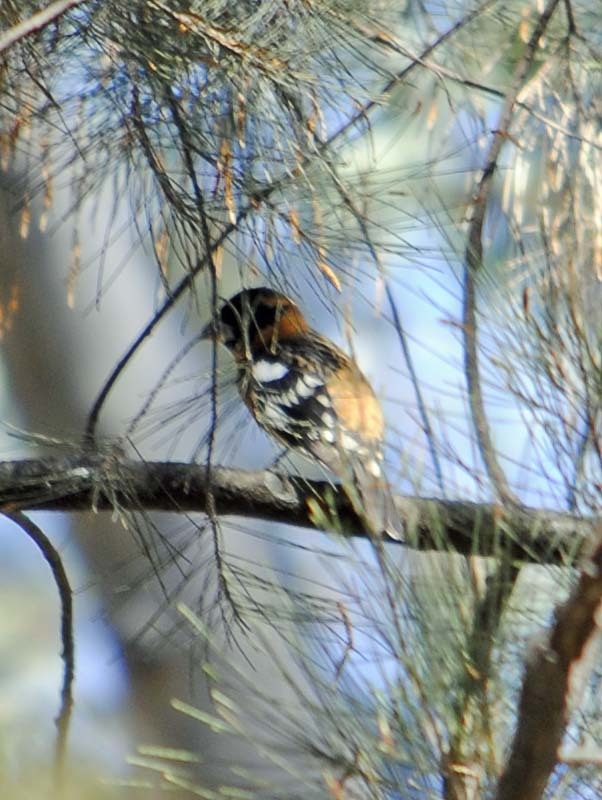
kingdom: Animalia
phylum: Chordata
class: Aves
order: Passeriformes
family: Cardinalidae
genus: Pheucticus
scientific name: Pheucticus melanocephalus
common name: Black-headed grosbeak
